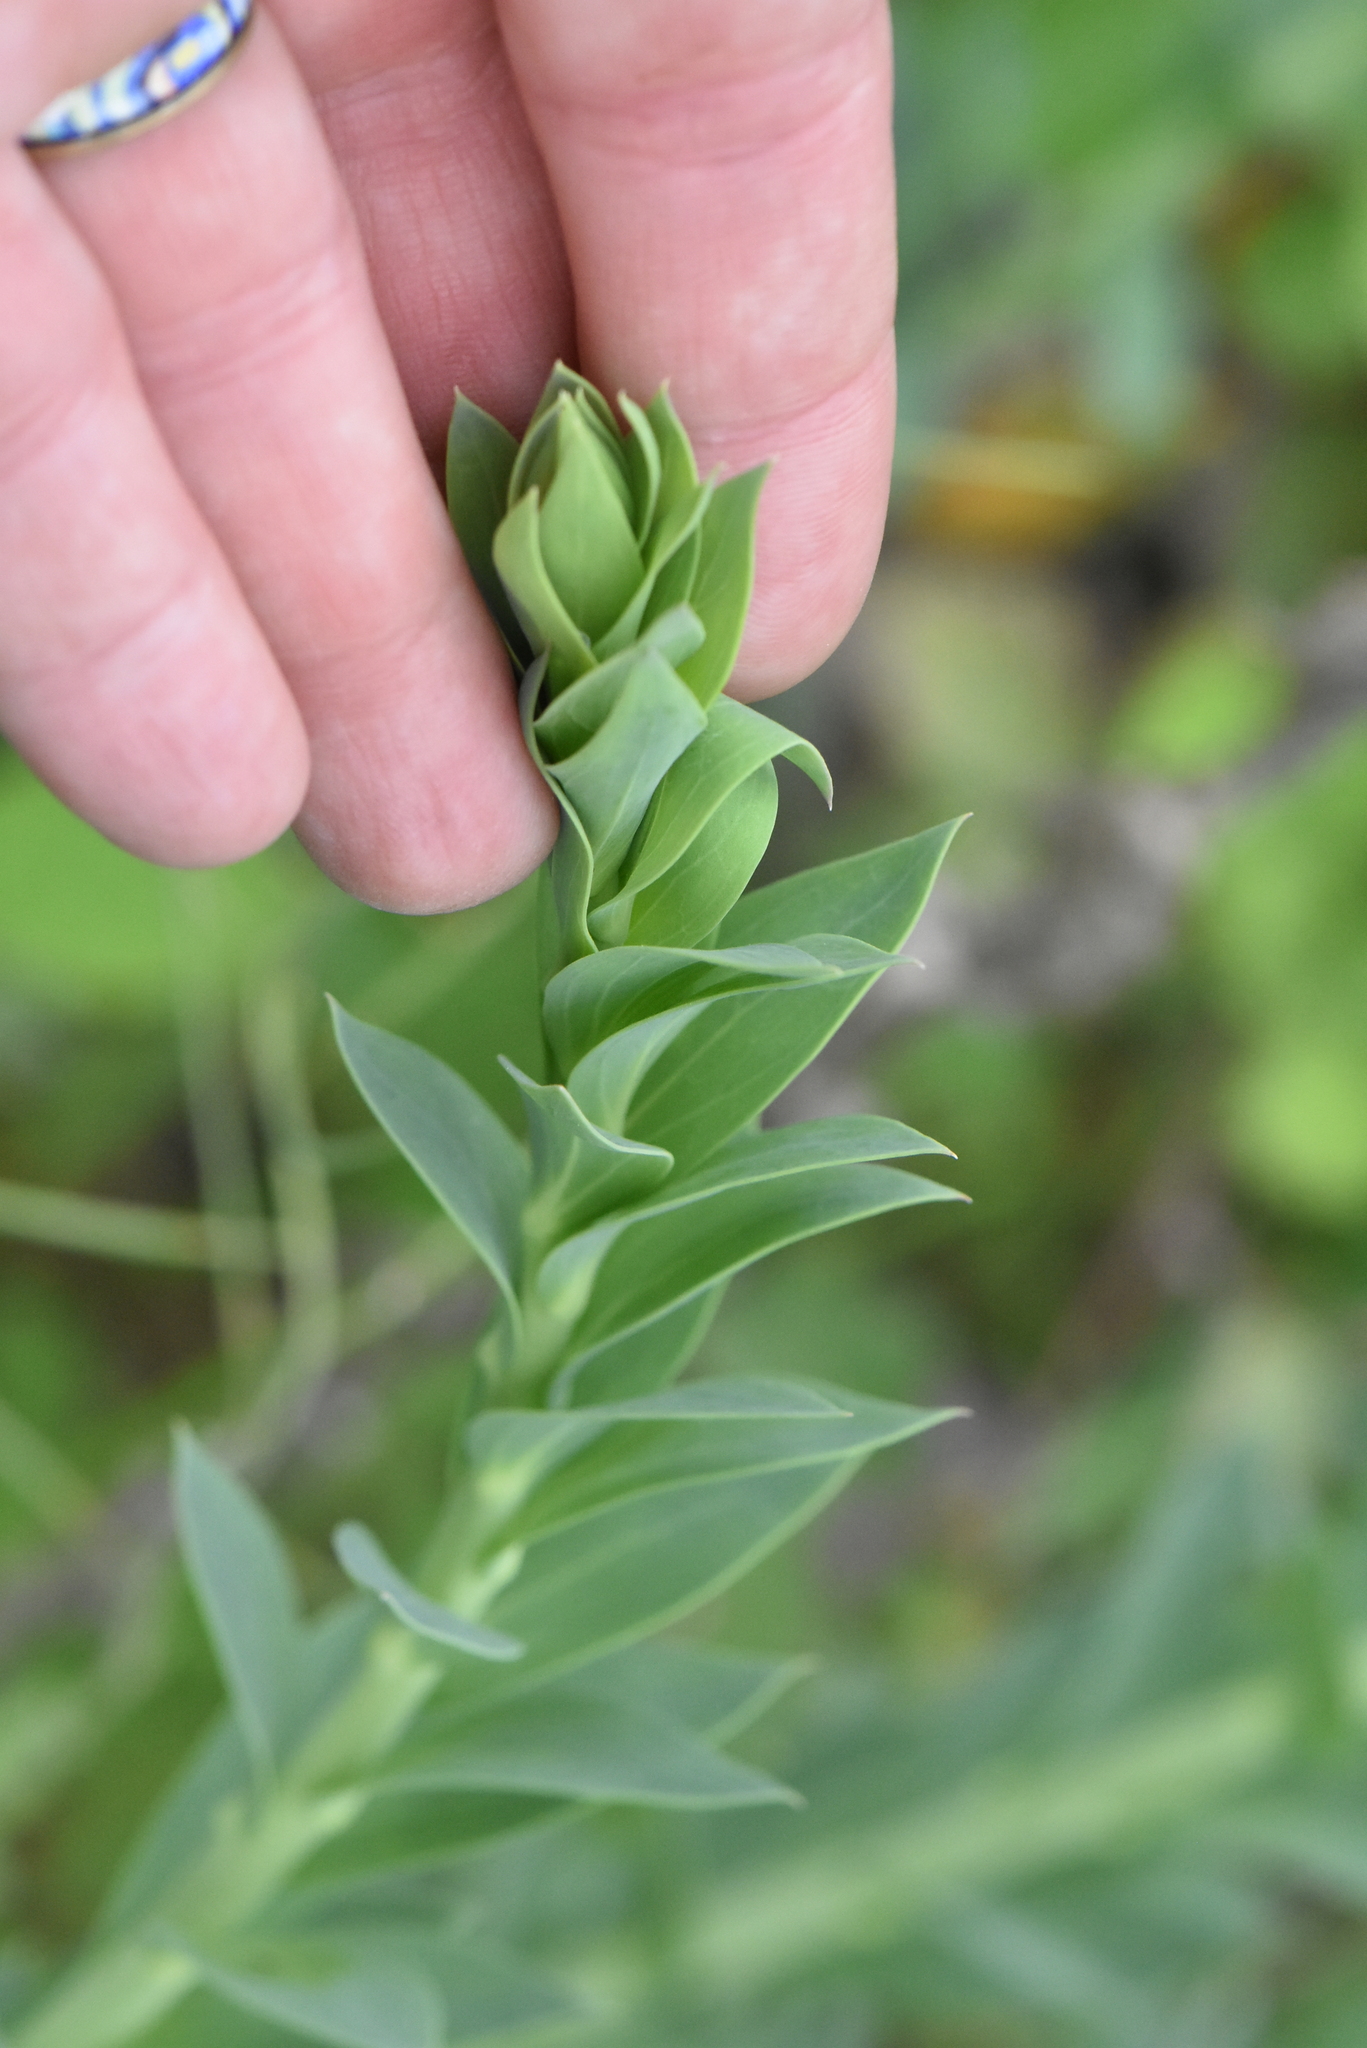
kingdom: Plantae
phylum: Tracheophyta
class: Magnoliopsida
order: Lamiales
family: Plantaginaceae
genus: Linaria
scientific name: Linaria genistifolia
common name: Broomleaf toadflax
